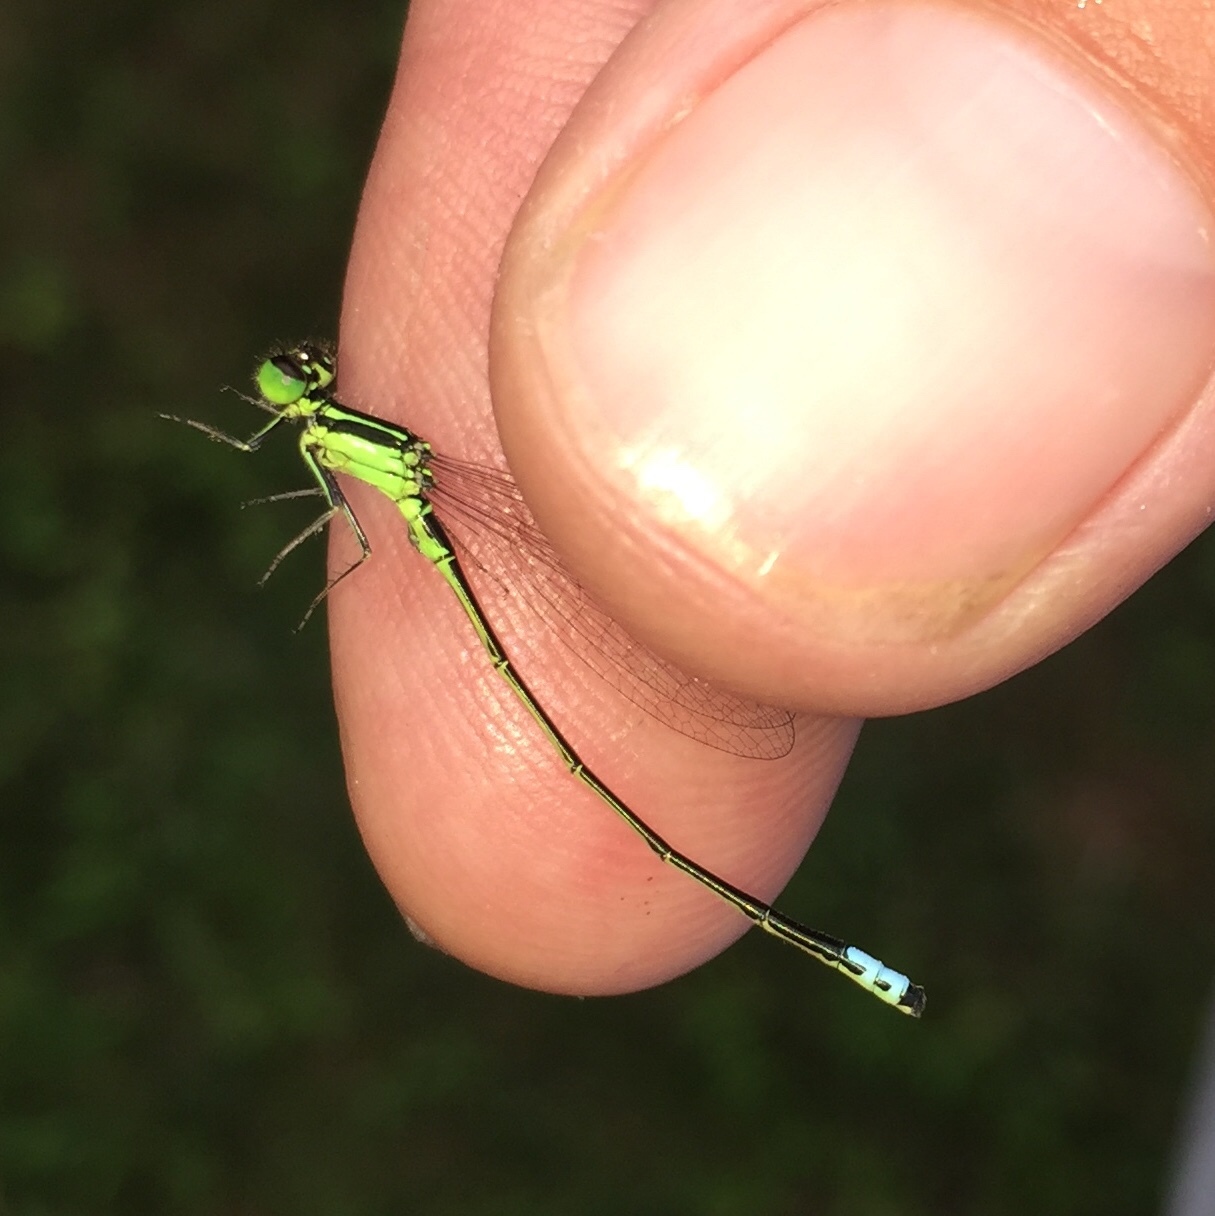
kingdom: Animalia
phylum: Arthropoda
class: Insecta
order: Odonata
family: Coenagrionidae
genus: Ischnura
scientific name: Ischnura verticalis
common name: Eastern forktail
